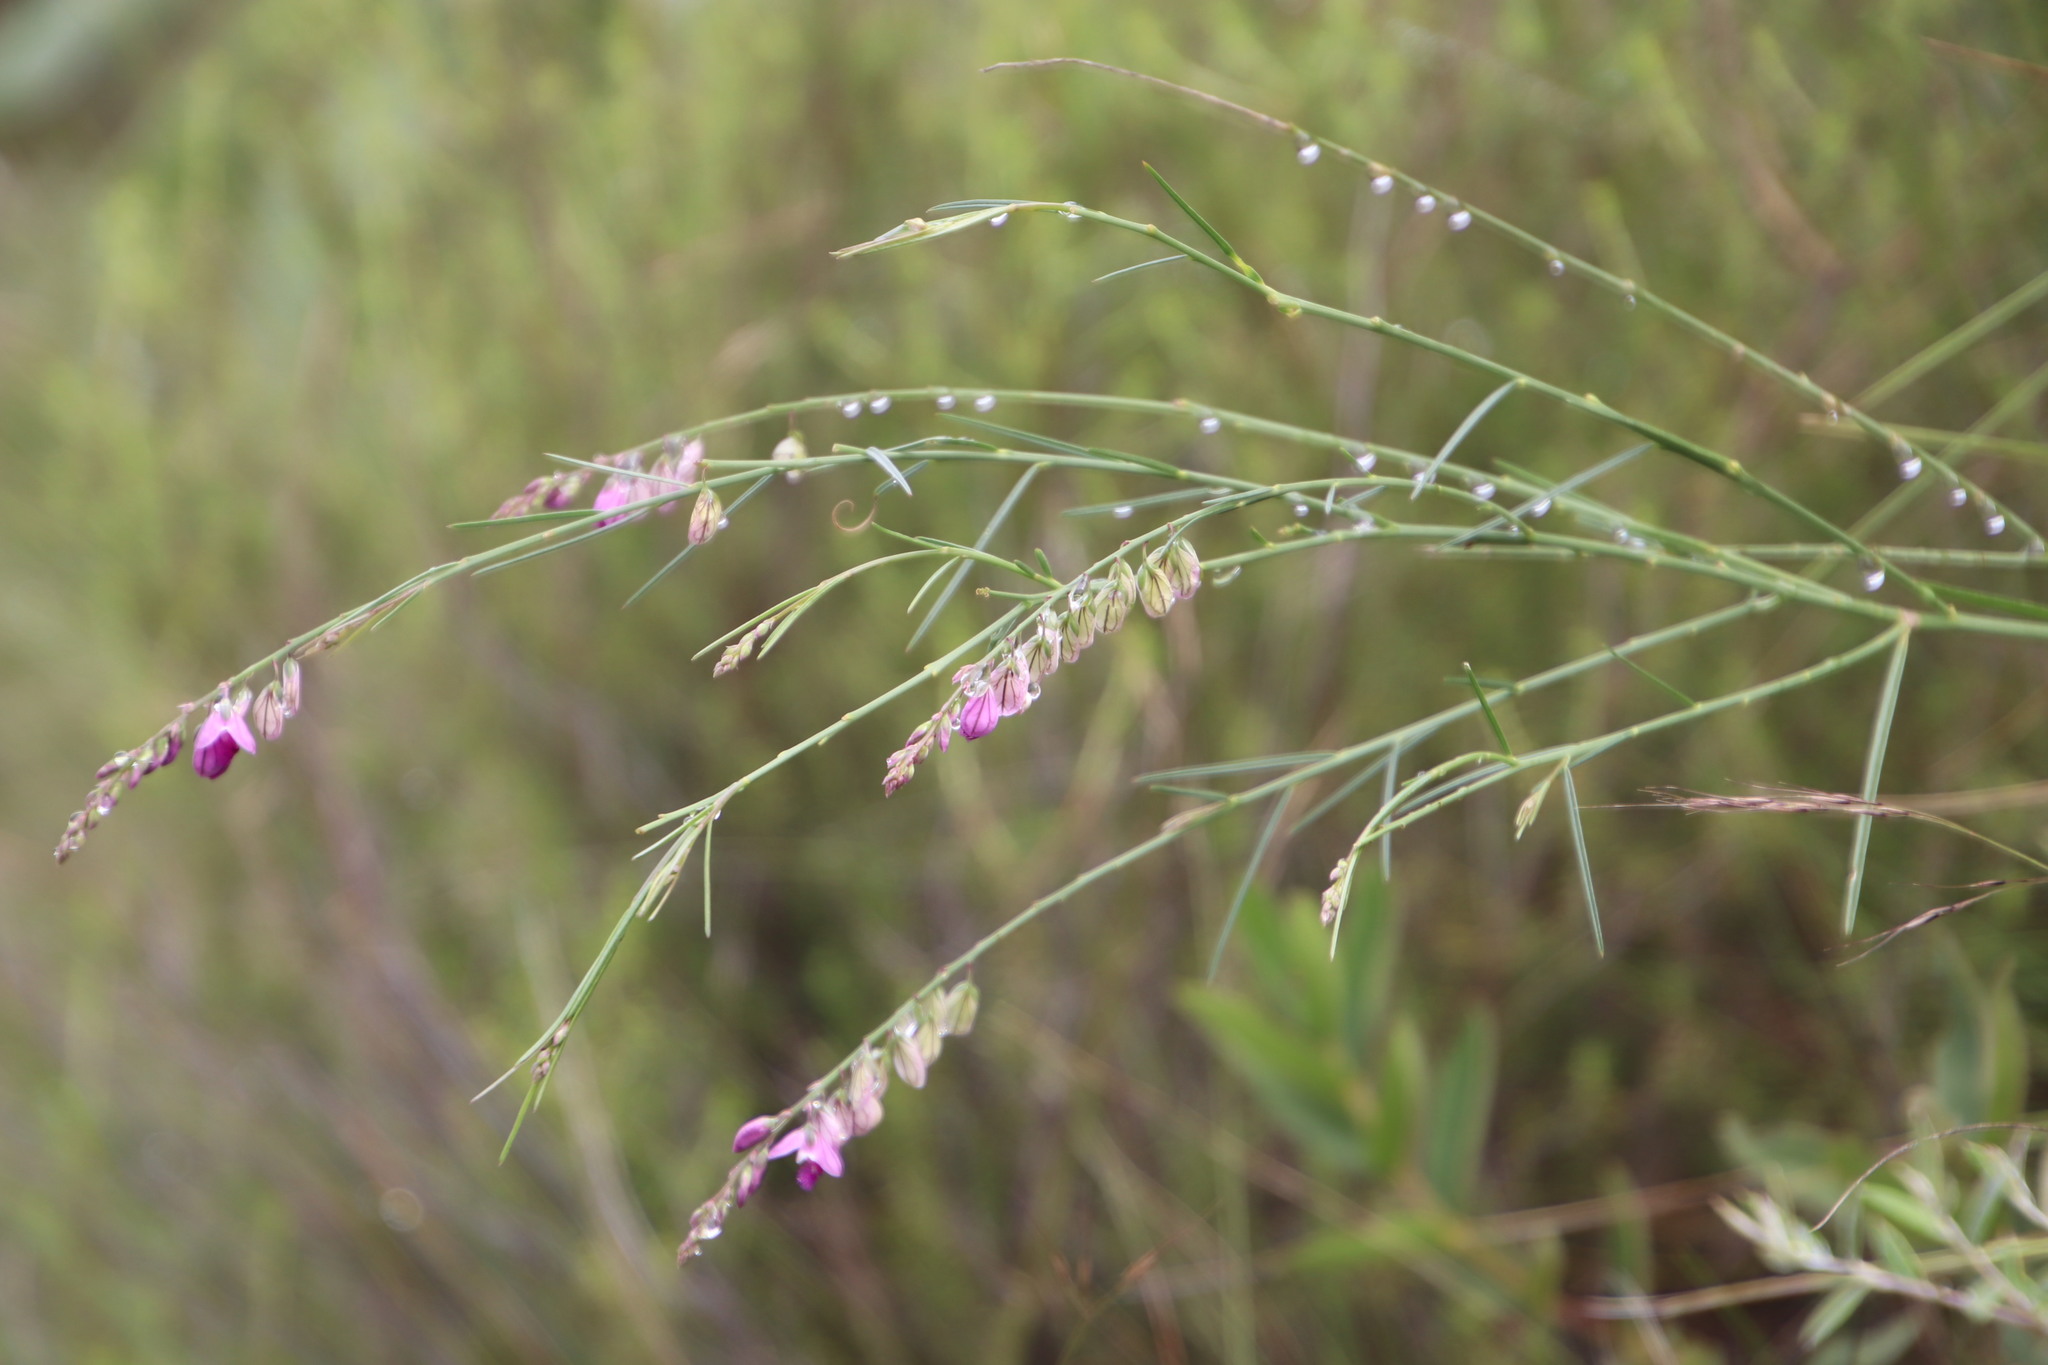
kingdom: Plantae
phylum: Tracheophyta
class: Magnoliopsida
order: Fabales
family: Polygalaceae
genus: Polygala
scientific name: Polygala virgata
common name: Milkwort
